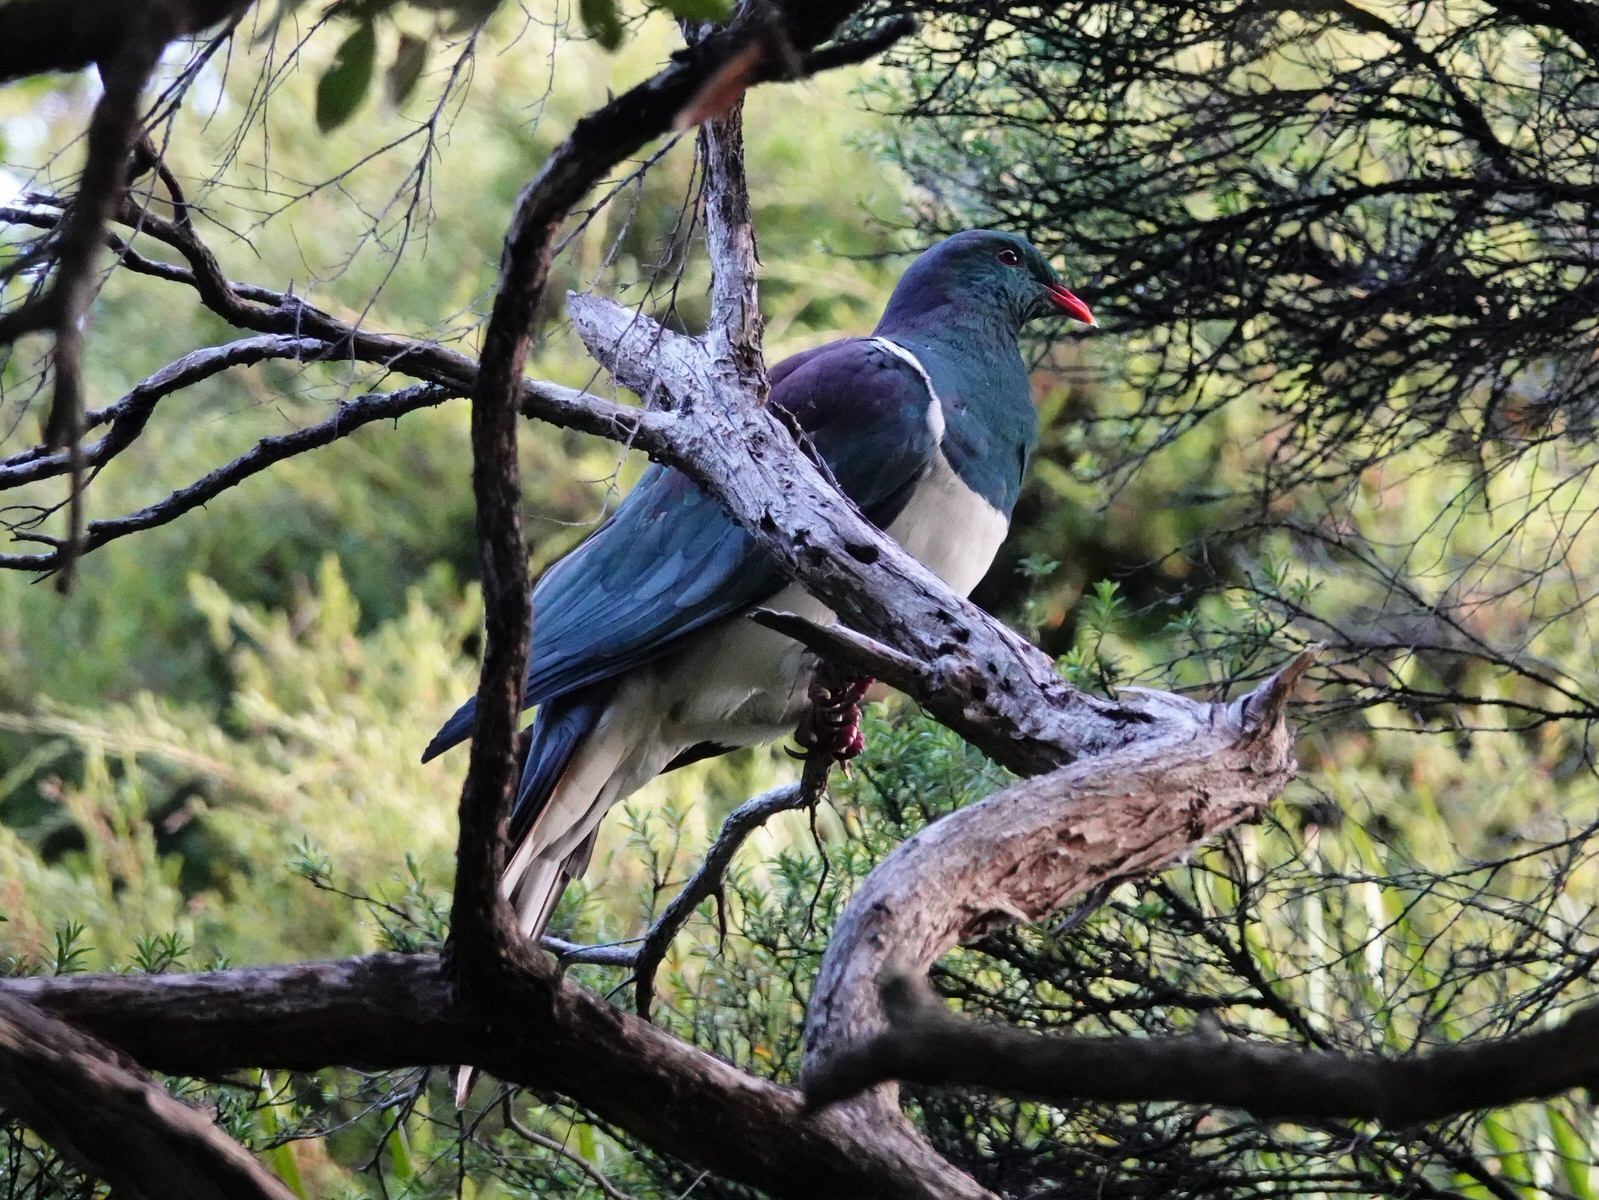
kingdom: Animalia
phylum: Chordata
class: Aves
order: Columbiformes
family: Columbidae
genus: Hemiphaga
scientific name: Hemiphaga novaeseelandiae
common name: New zealand pigeon
